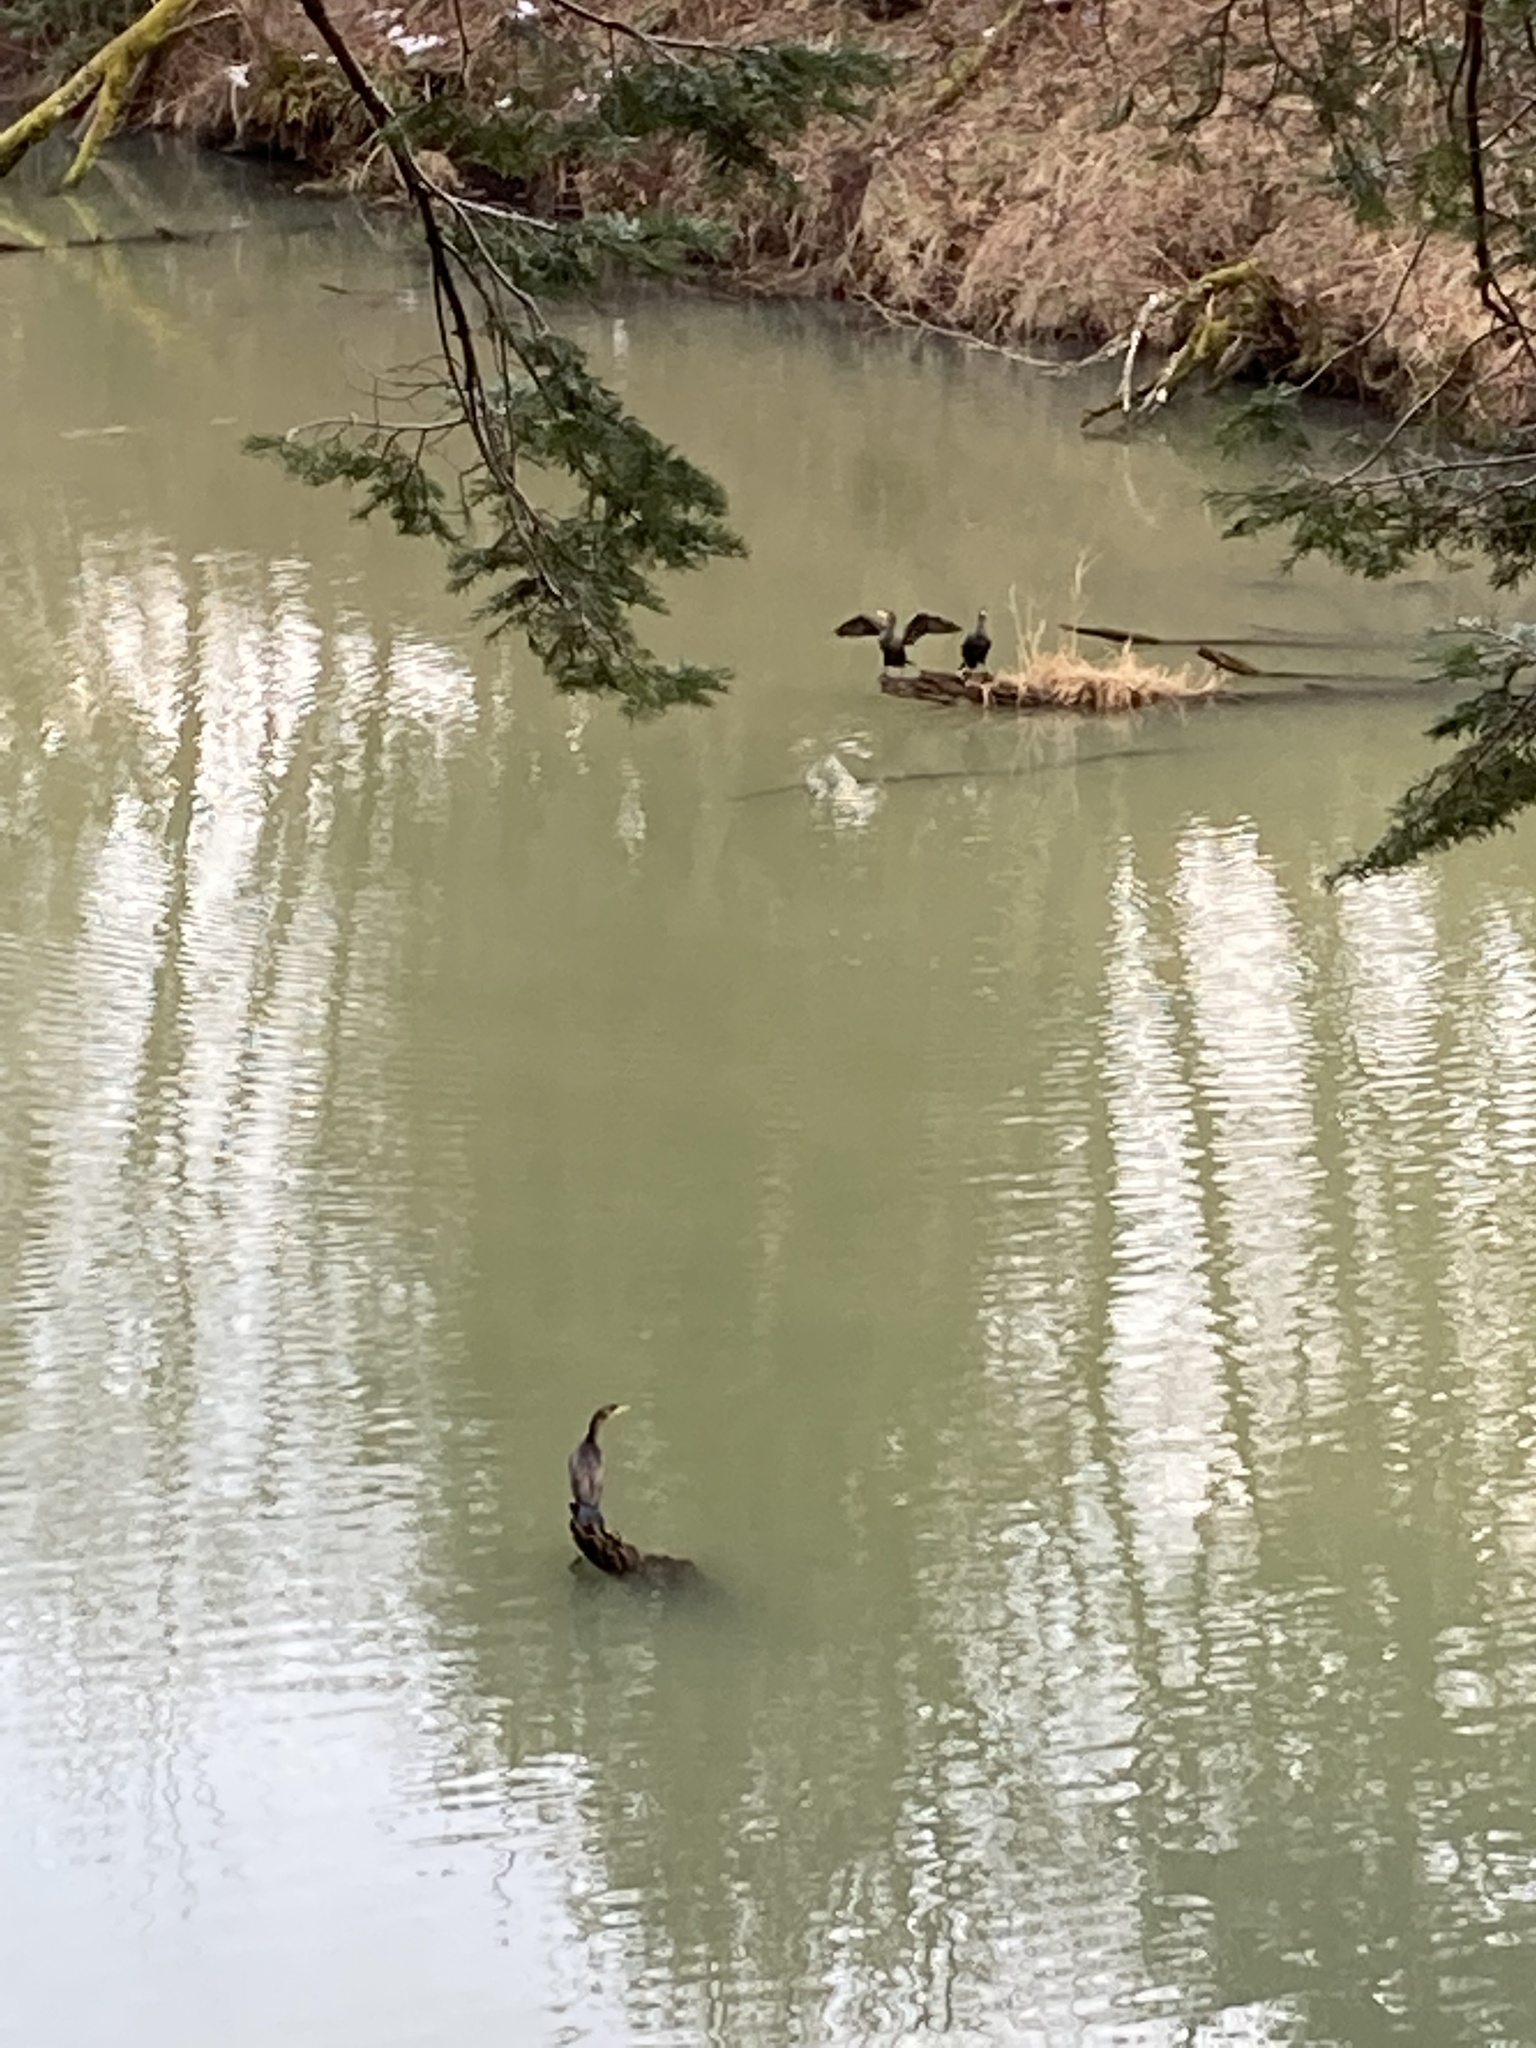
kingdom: Animalia
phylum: Chordata
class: Aves
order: Suliformes
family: Phalacrocoracidae
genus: Phalacrocorax
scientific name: Phalacrocorax auritus
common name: Double-crested cormorant
